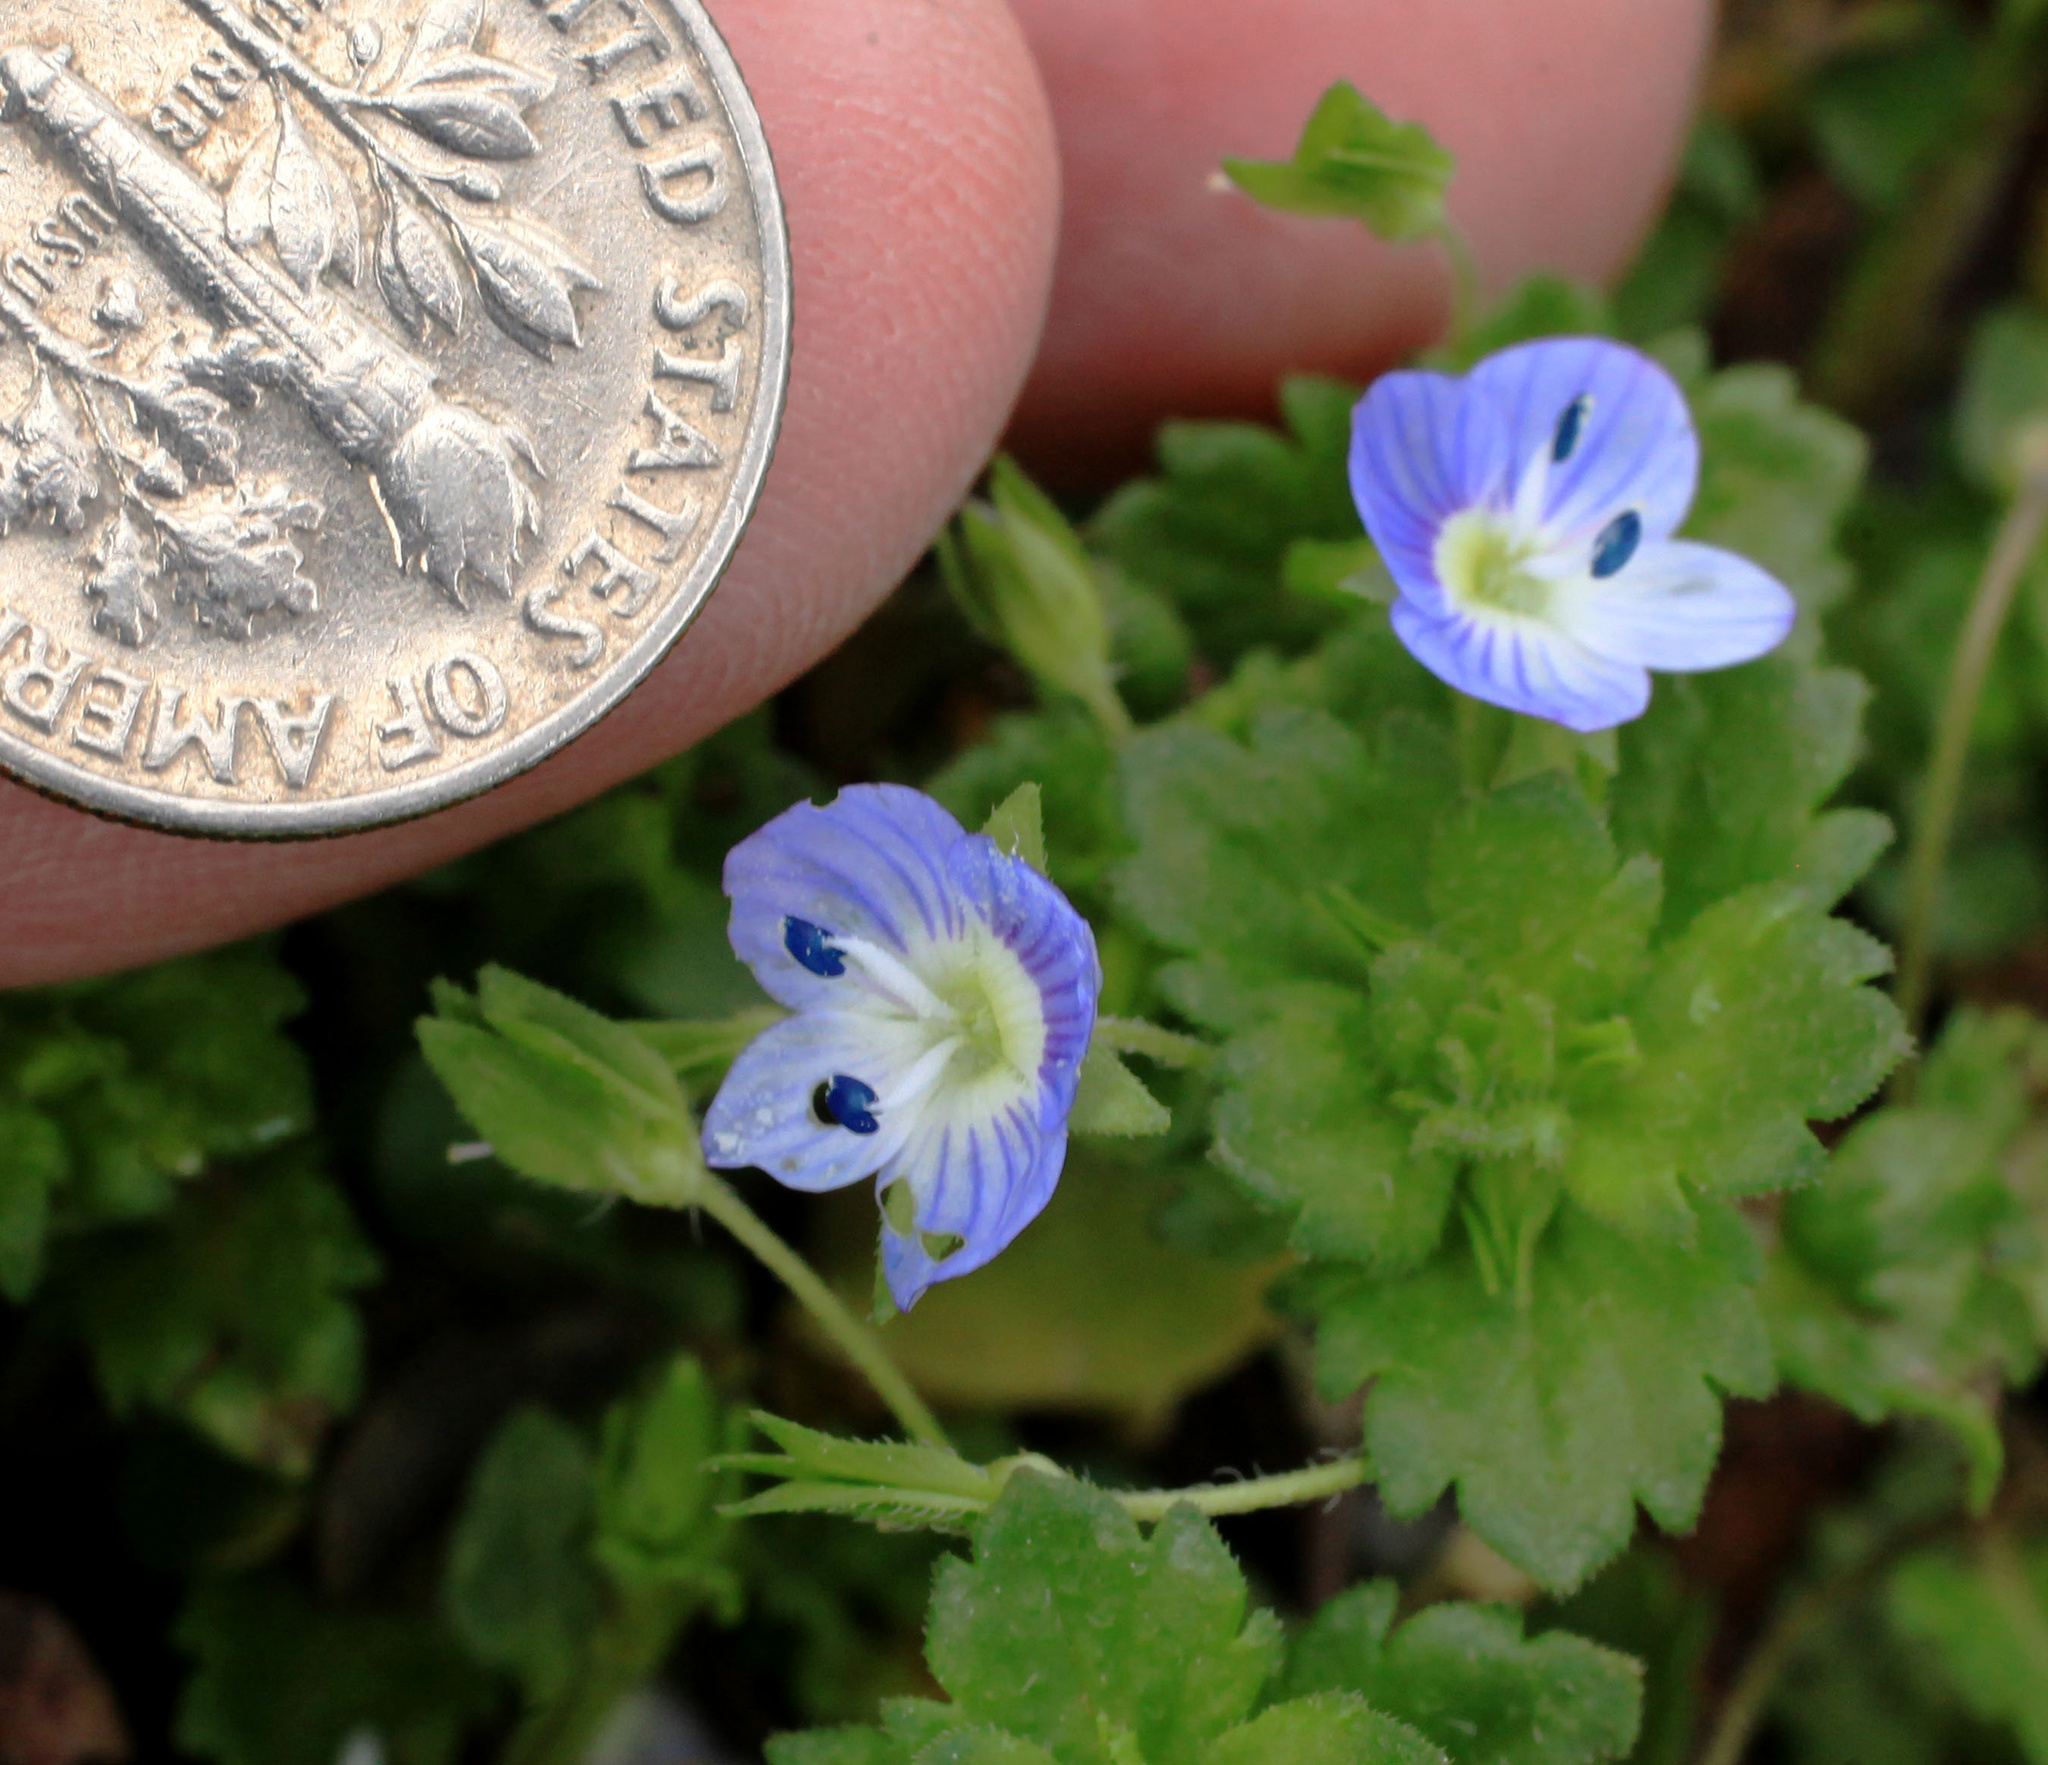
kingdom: Plantae
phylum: Tracheophyta
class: Magnoliopsida
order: Lamiales
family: Plantaginaceae
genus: Veronica
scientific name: Veronica persica
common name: Common field-speedwell
